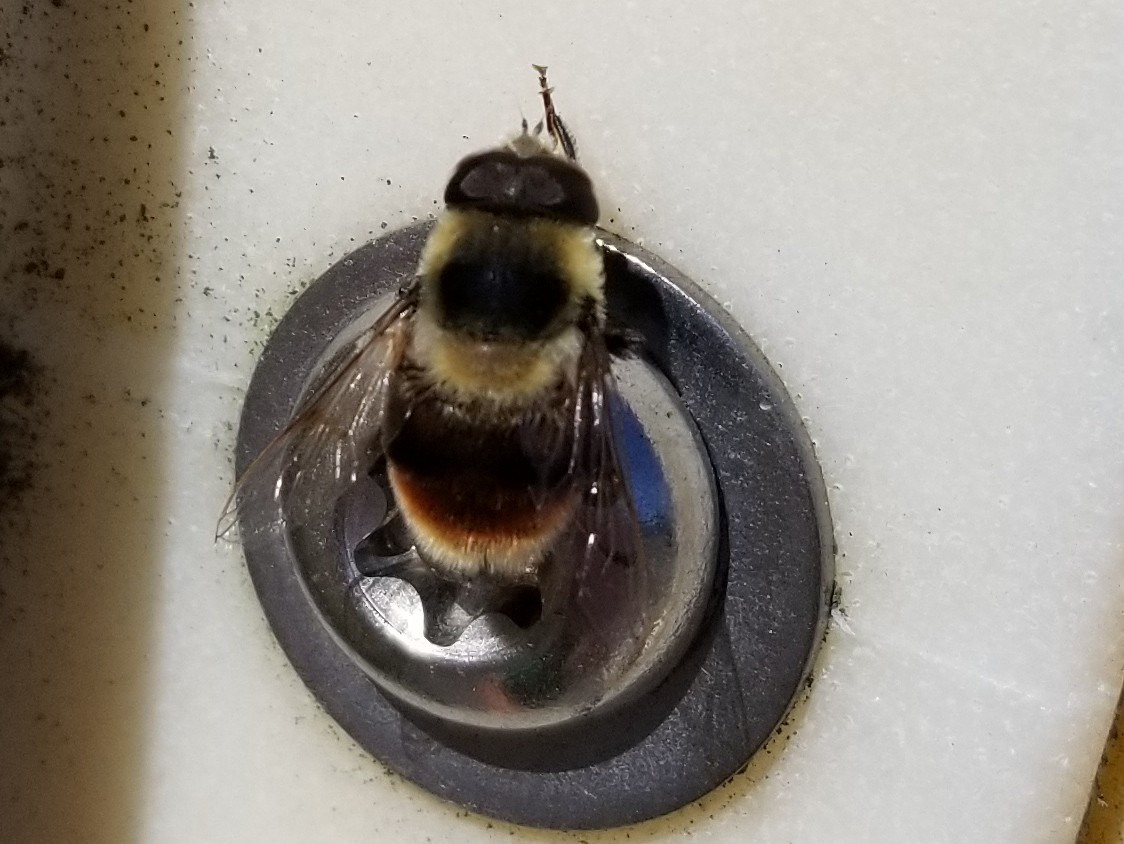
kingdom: Animalia
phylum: Arthropoda
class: Insecta
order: Diptera
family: Syrphidae
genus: Eristalis
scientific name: Eristalis flavipes
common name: Orange-legged drone fly
